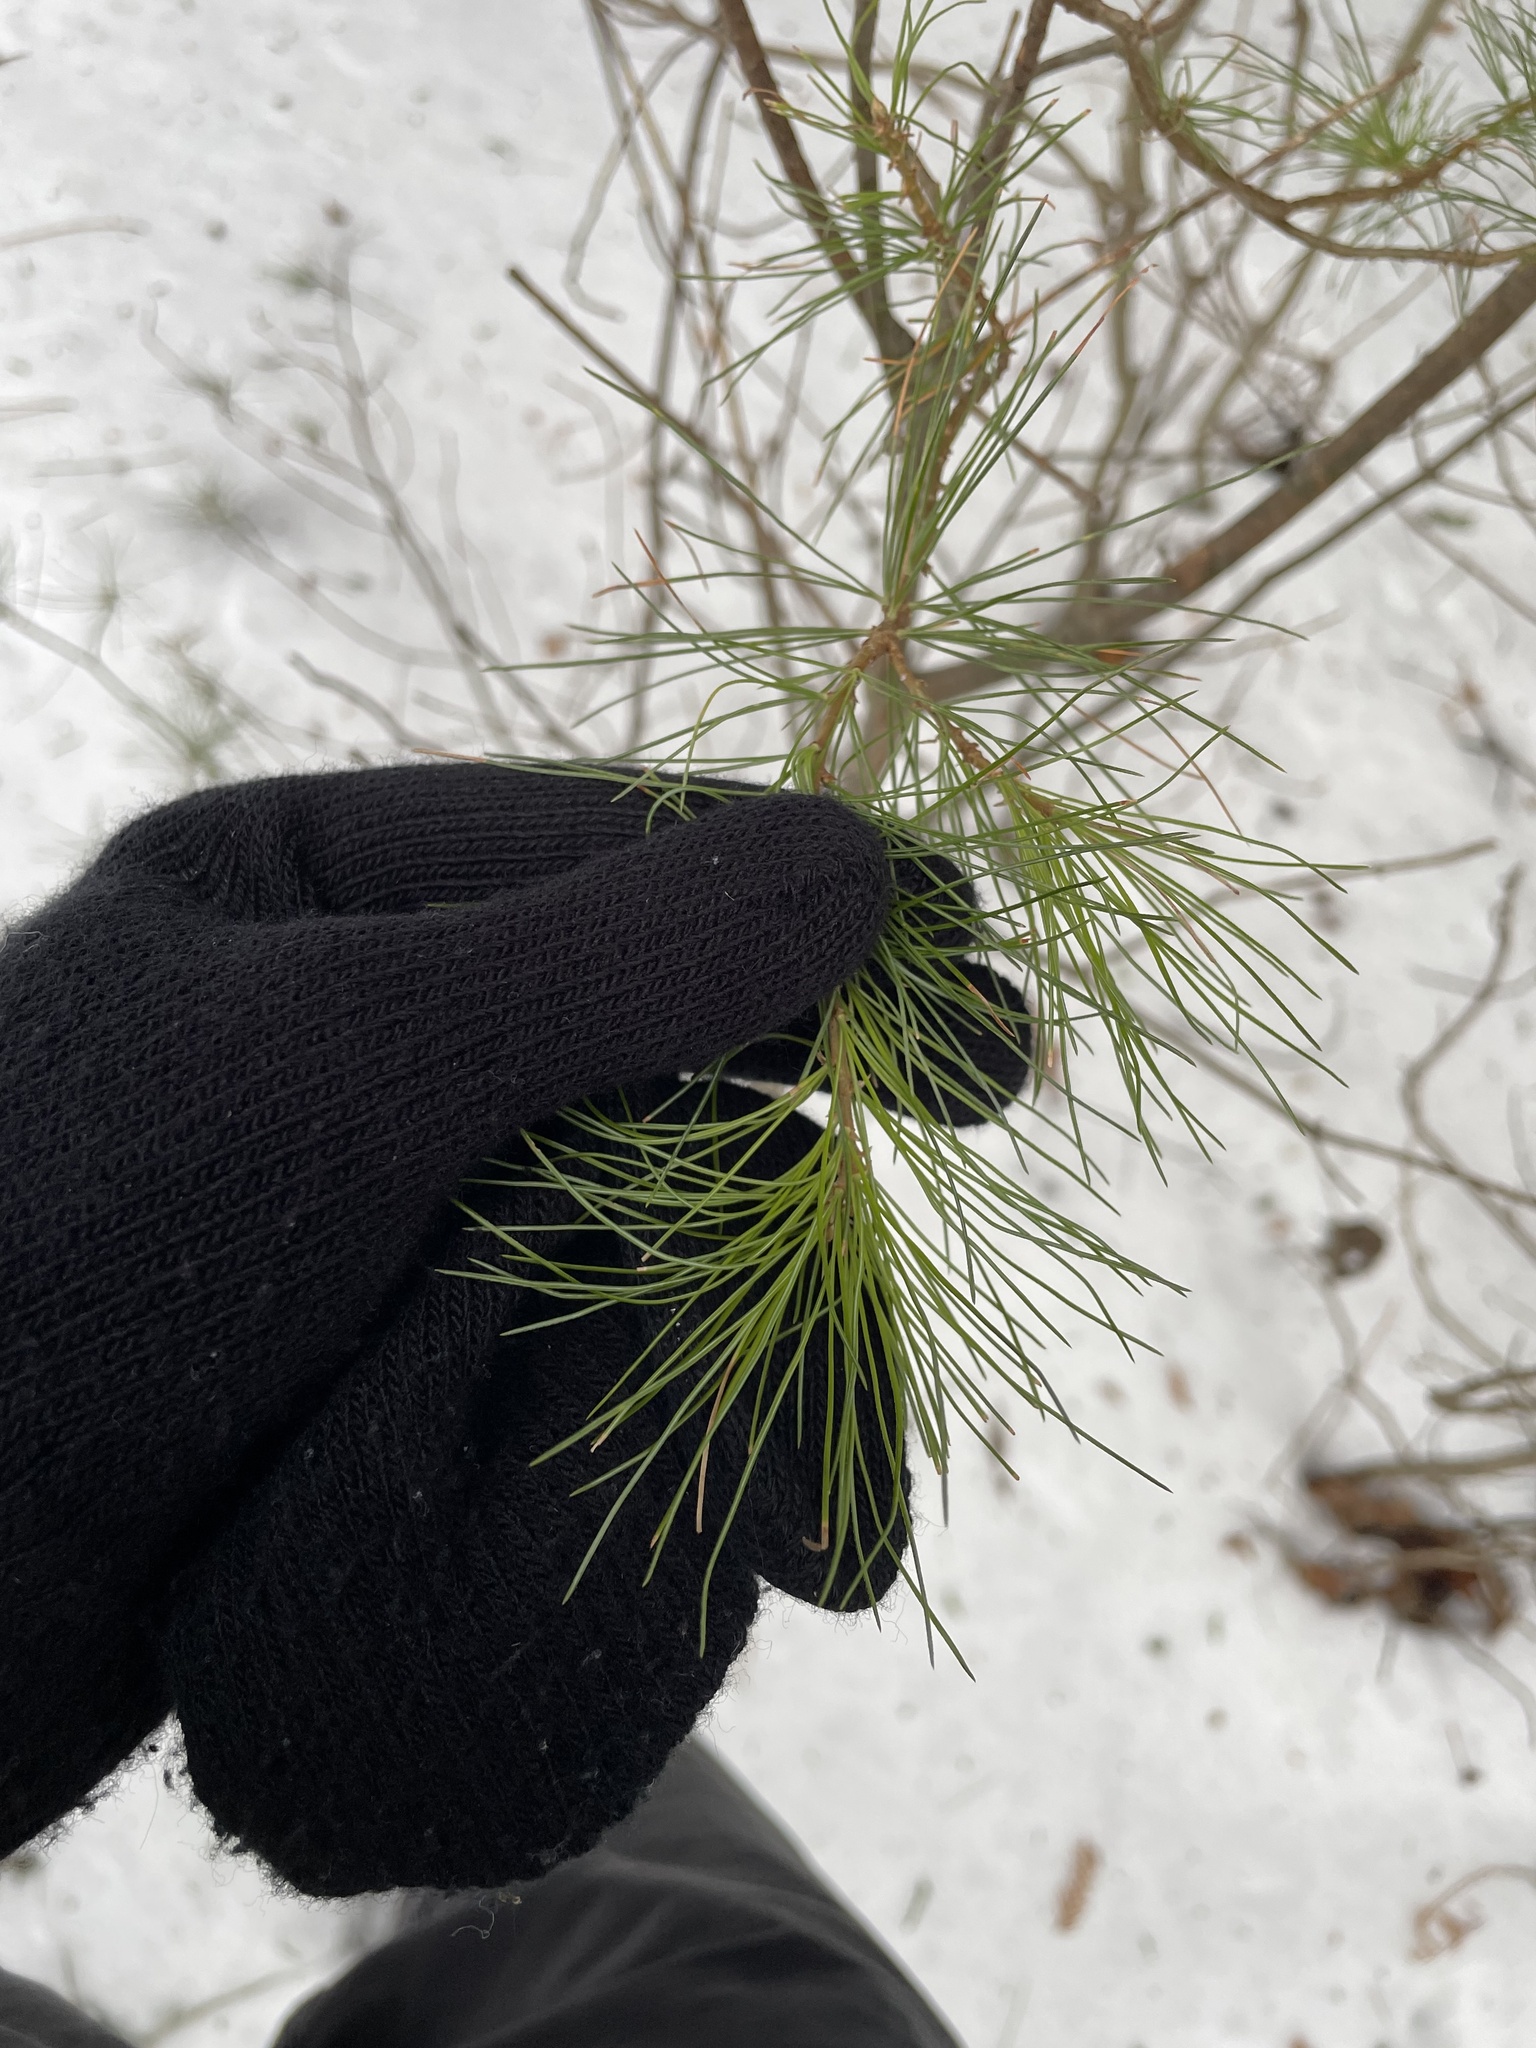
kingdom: Plantae
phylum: Tracheophyta
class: Pinopsida
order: Pinales
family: Pinaceae
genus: Pinus
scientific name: Pinus strobus
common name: Weymouth pine
